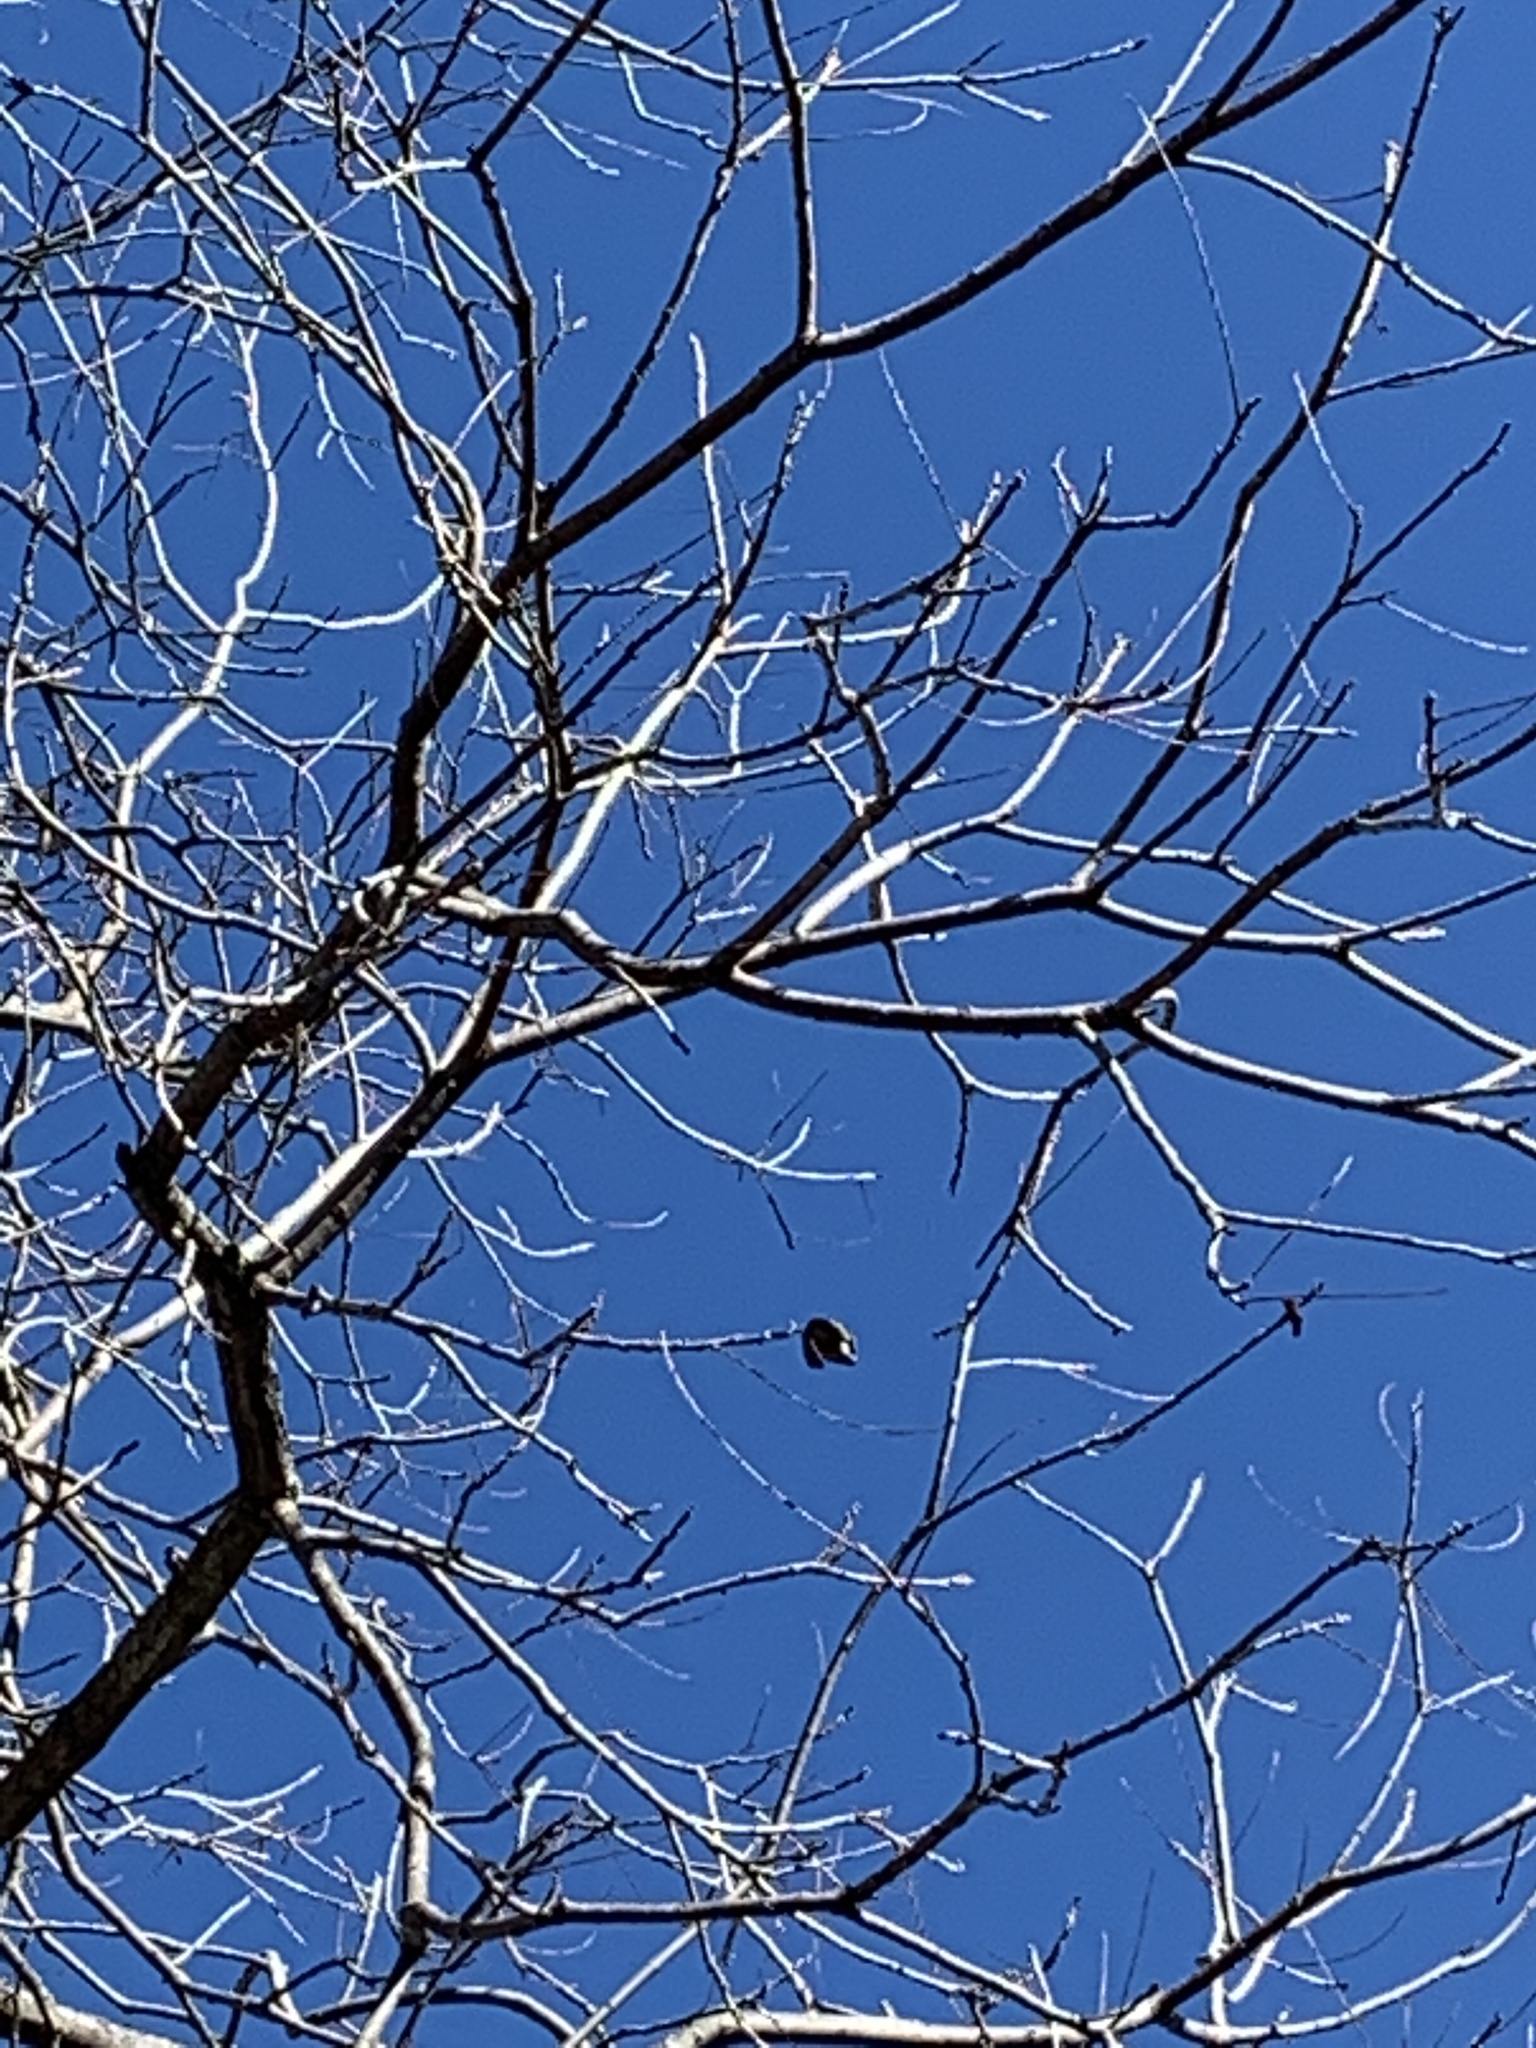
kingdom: Plantae
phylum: Tracheophyta
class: Magnoliopsida
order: Fagales
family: Juglandaceae
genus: Carya
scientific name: Carya illinoinensis
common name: Pecan
